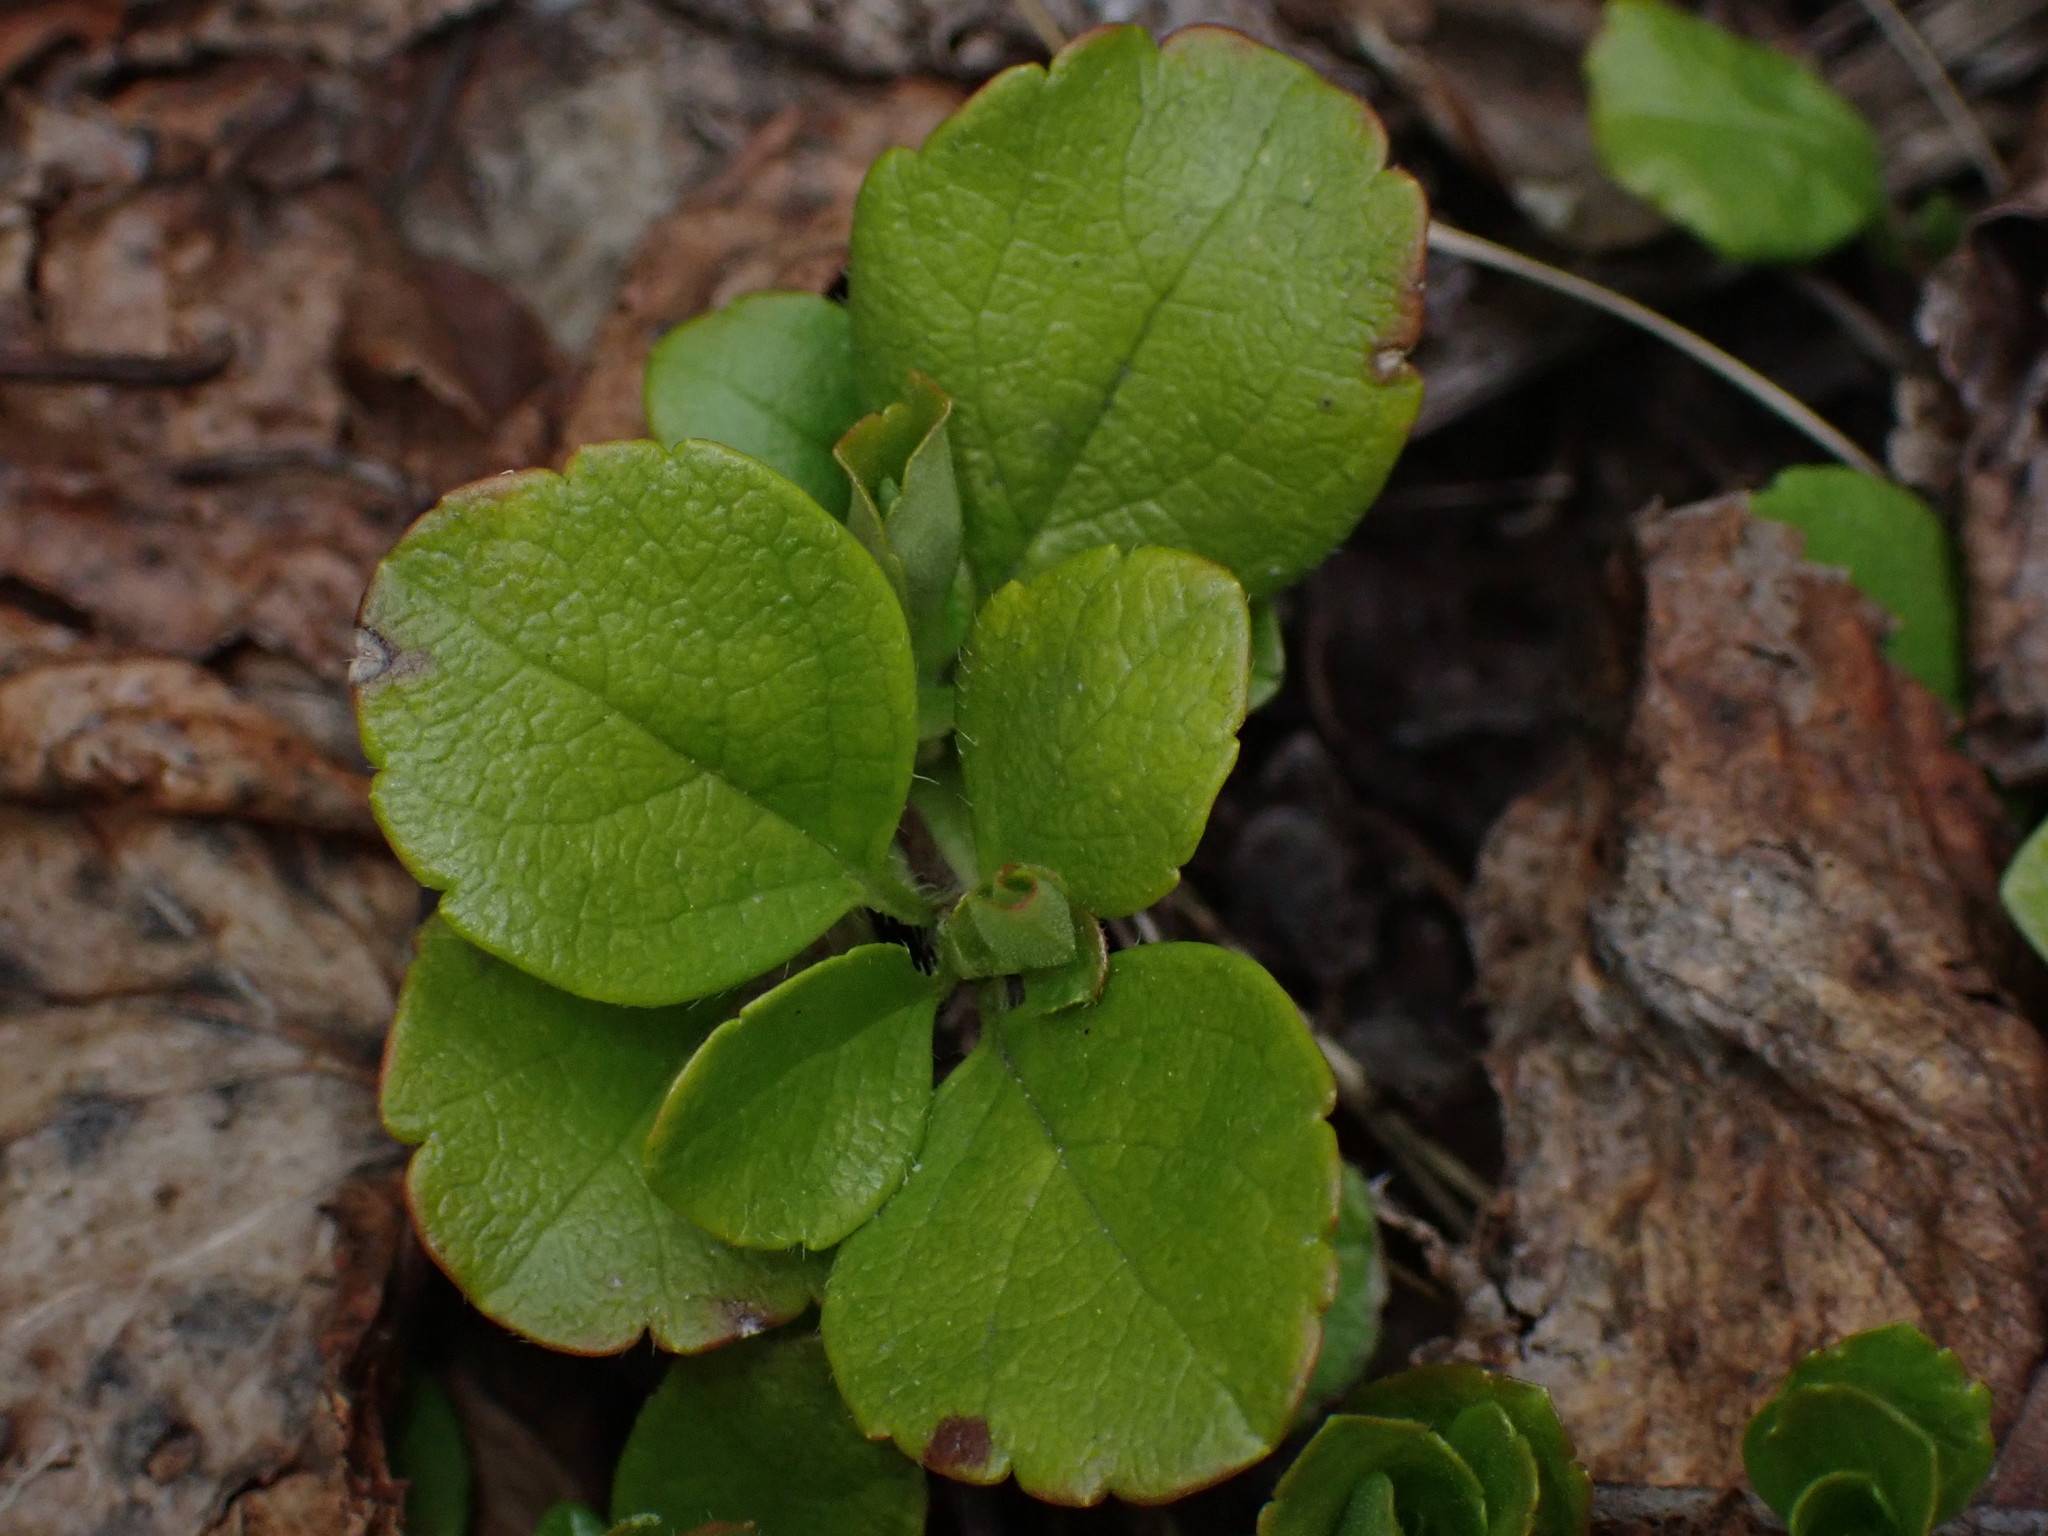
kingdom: Plantae
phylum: Tracheophyta
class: Magnoliopsida
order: Dipsacales
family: Caprifoliaceae
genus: Linnaea
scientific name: Linnaea borealis
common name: Twinflower
